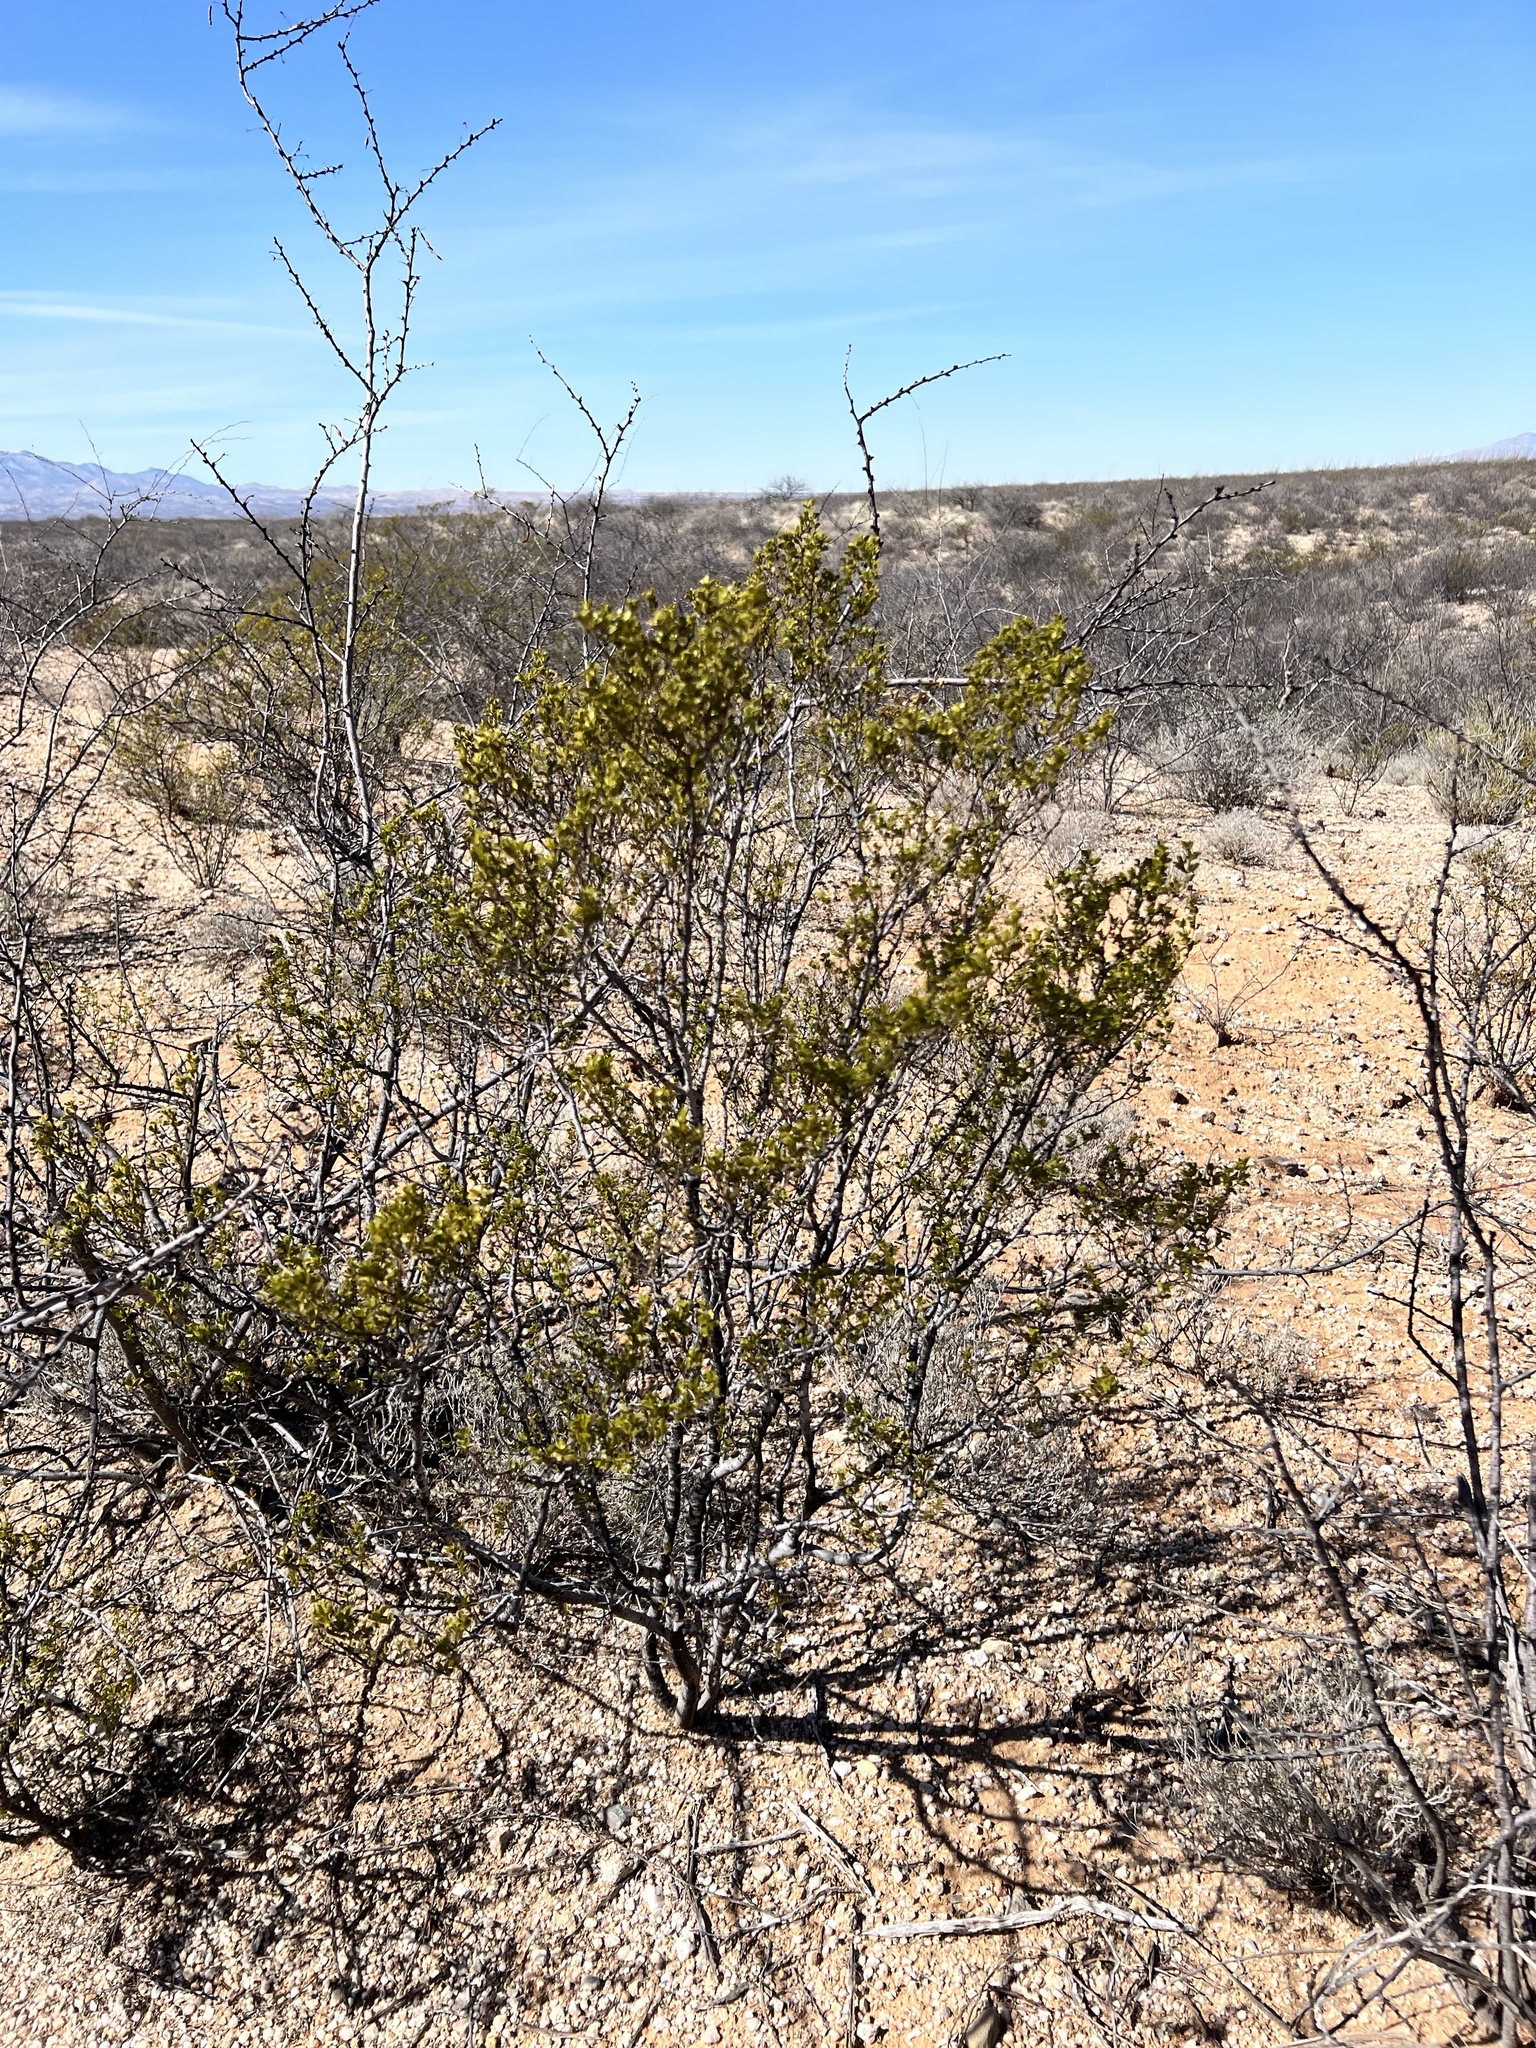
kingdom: Plantae
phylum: Tracheophyta
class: Magnoliopsida
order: Zygophyllales
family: Zygophyllaceae
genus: Larrea
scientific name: Larrea tridentata
